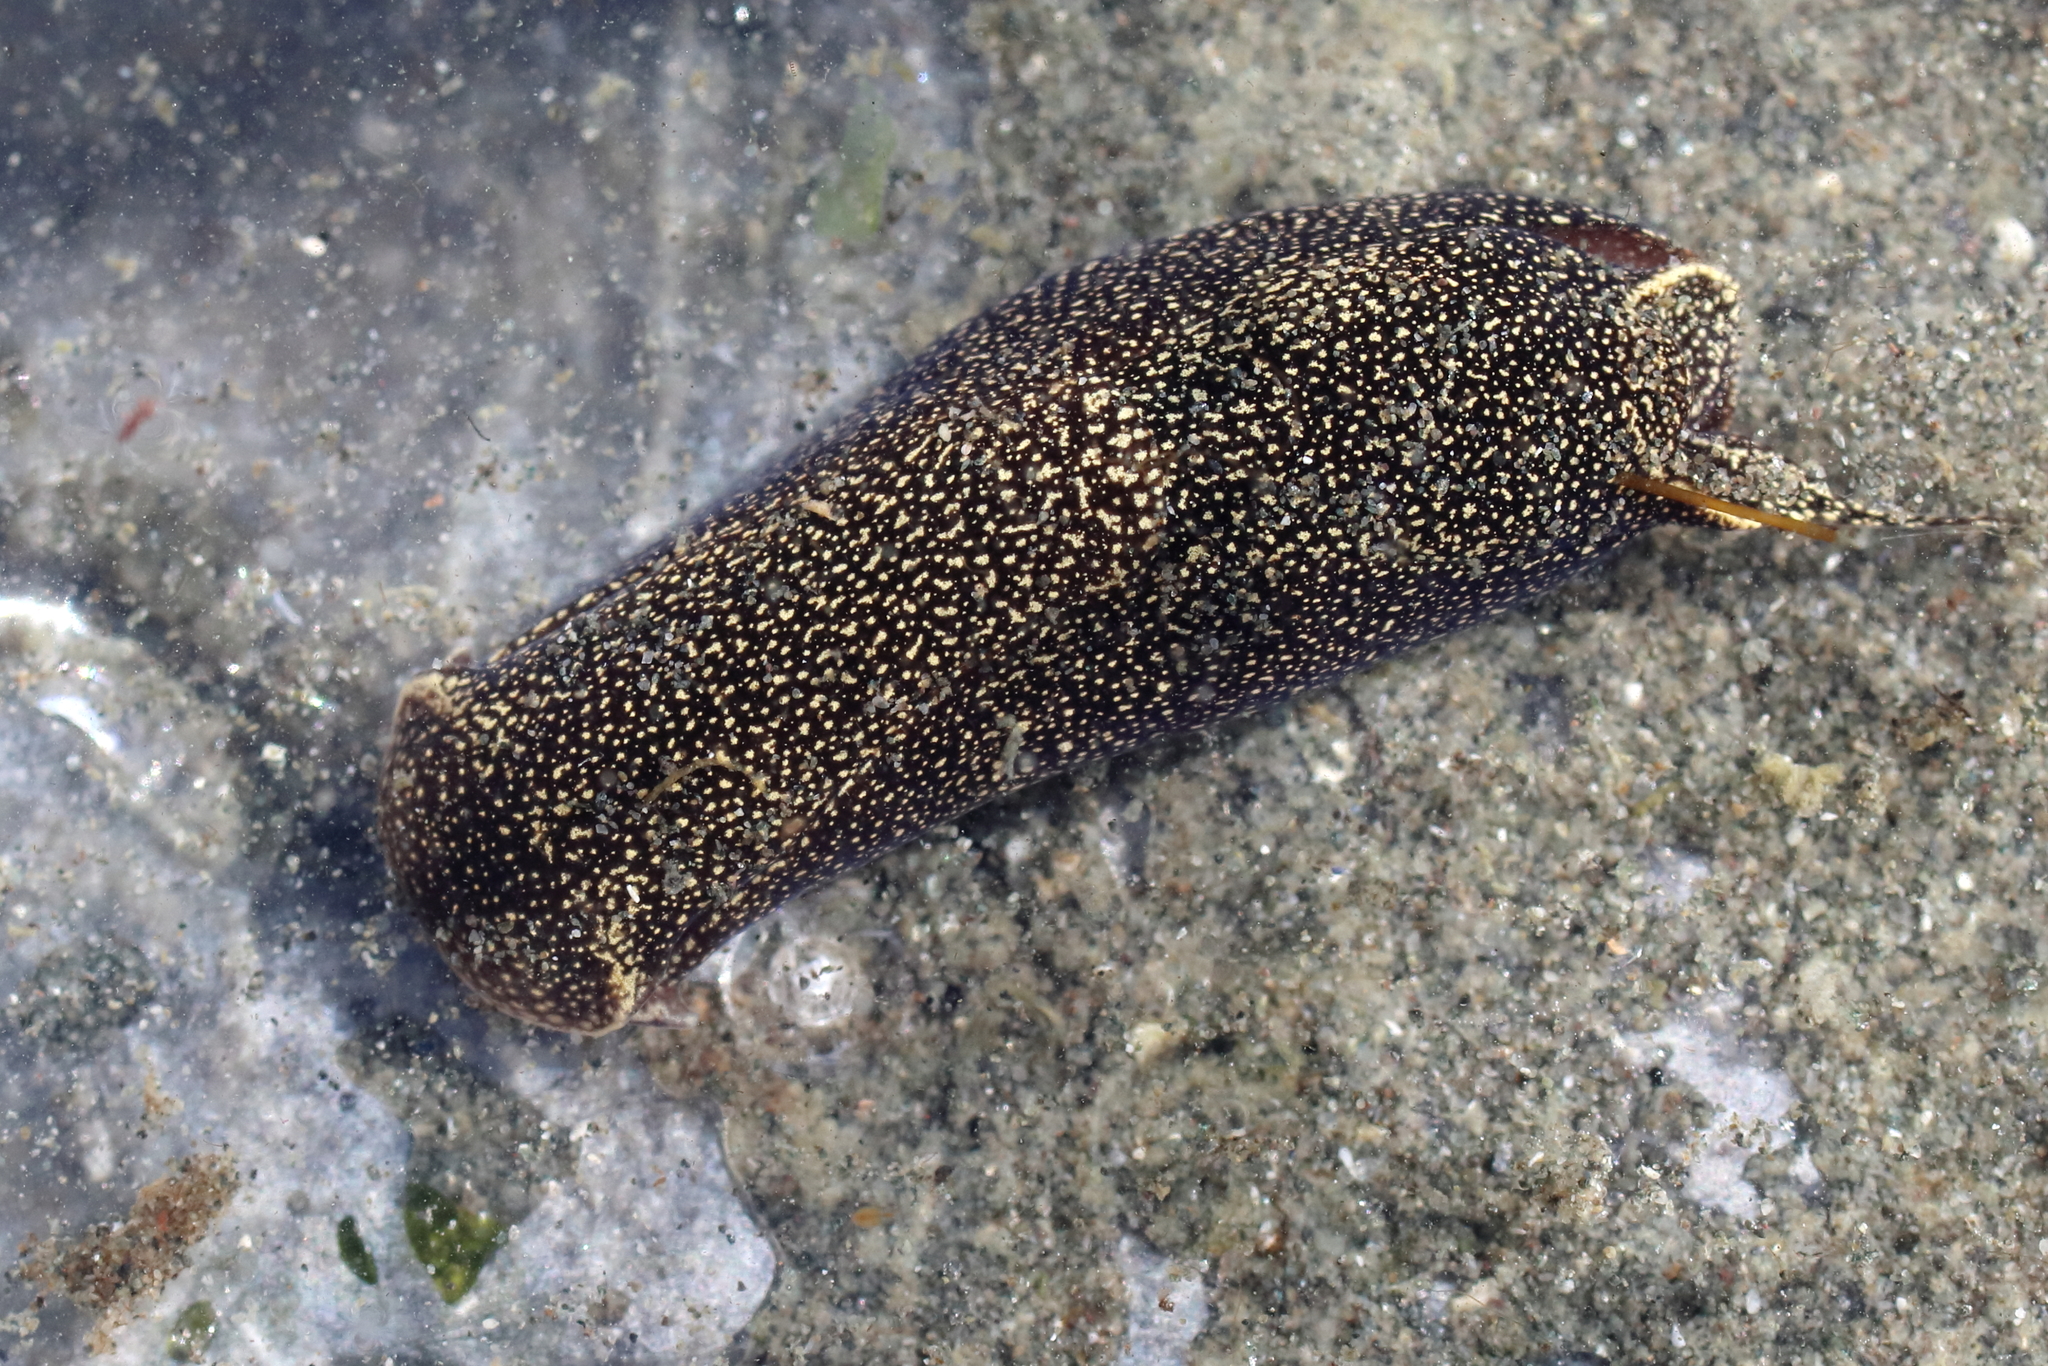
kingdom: Animalia
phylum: Mollusca
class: Gastropoda
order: Cephalaspidea
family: Aglajidae
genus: Aglaja
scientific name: Aglaja ocelligera
